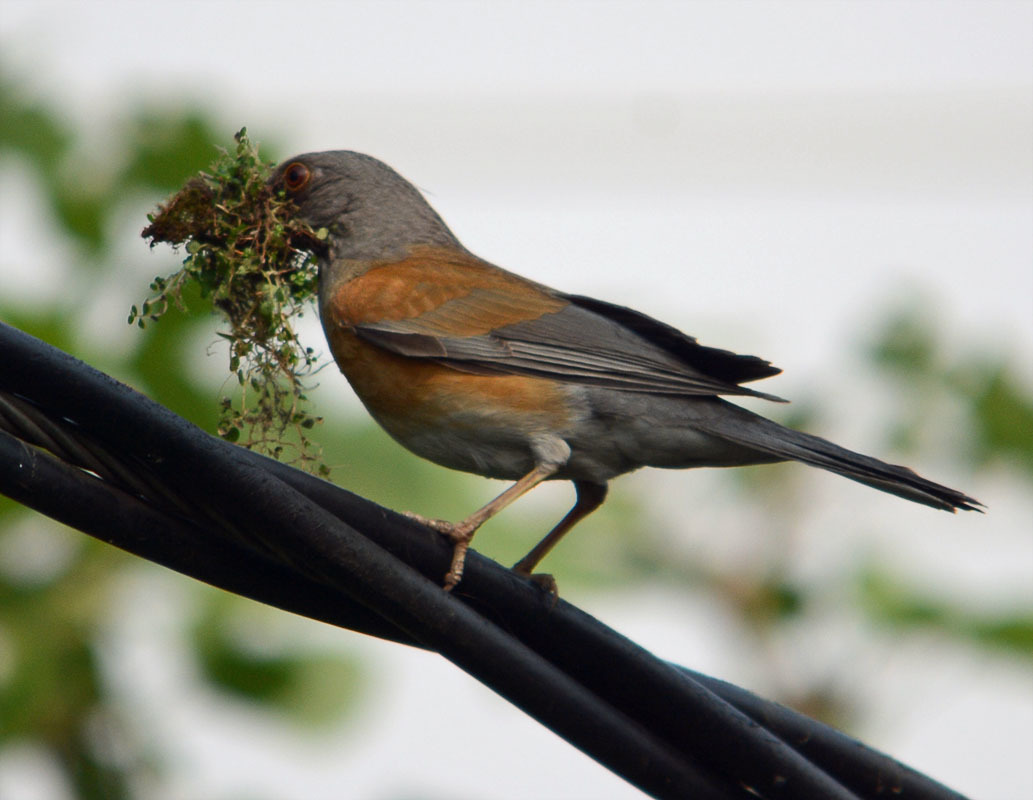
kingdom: Animalia
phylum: Chordata
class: Aves
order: Passeriformes
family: Turdidae
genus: Turdus
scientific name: Turdus rufopalliatus
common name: Rufous-backed robin
